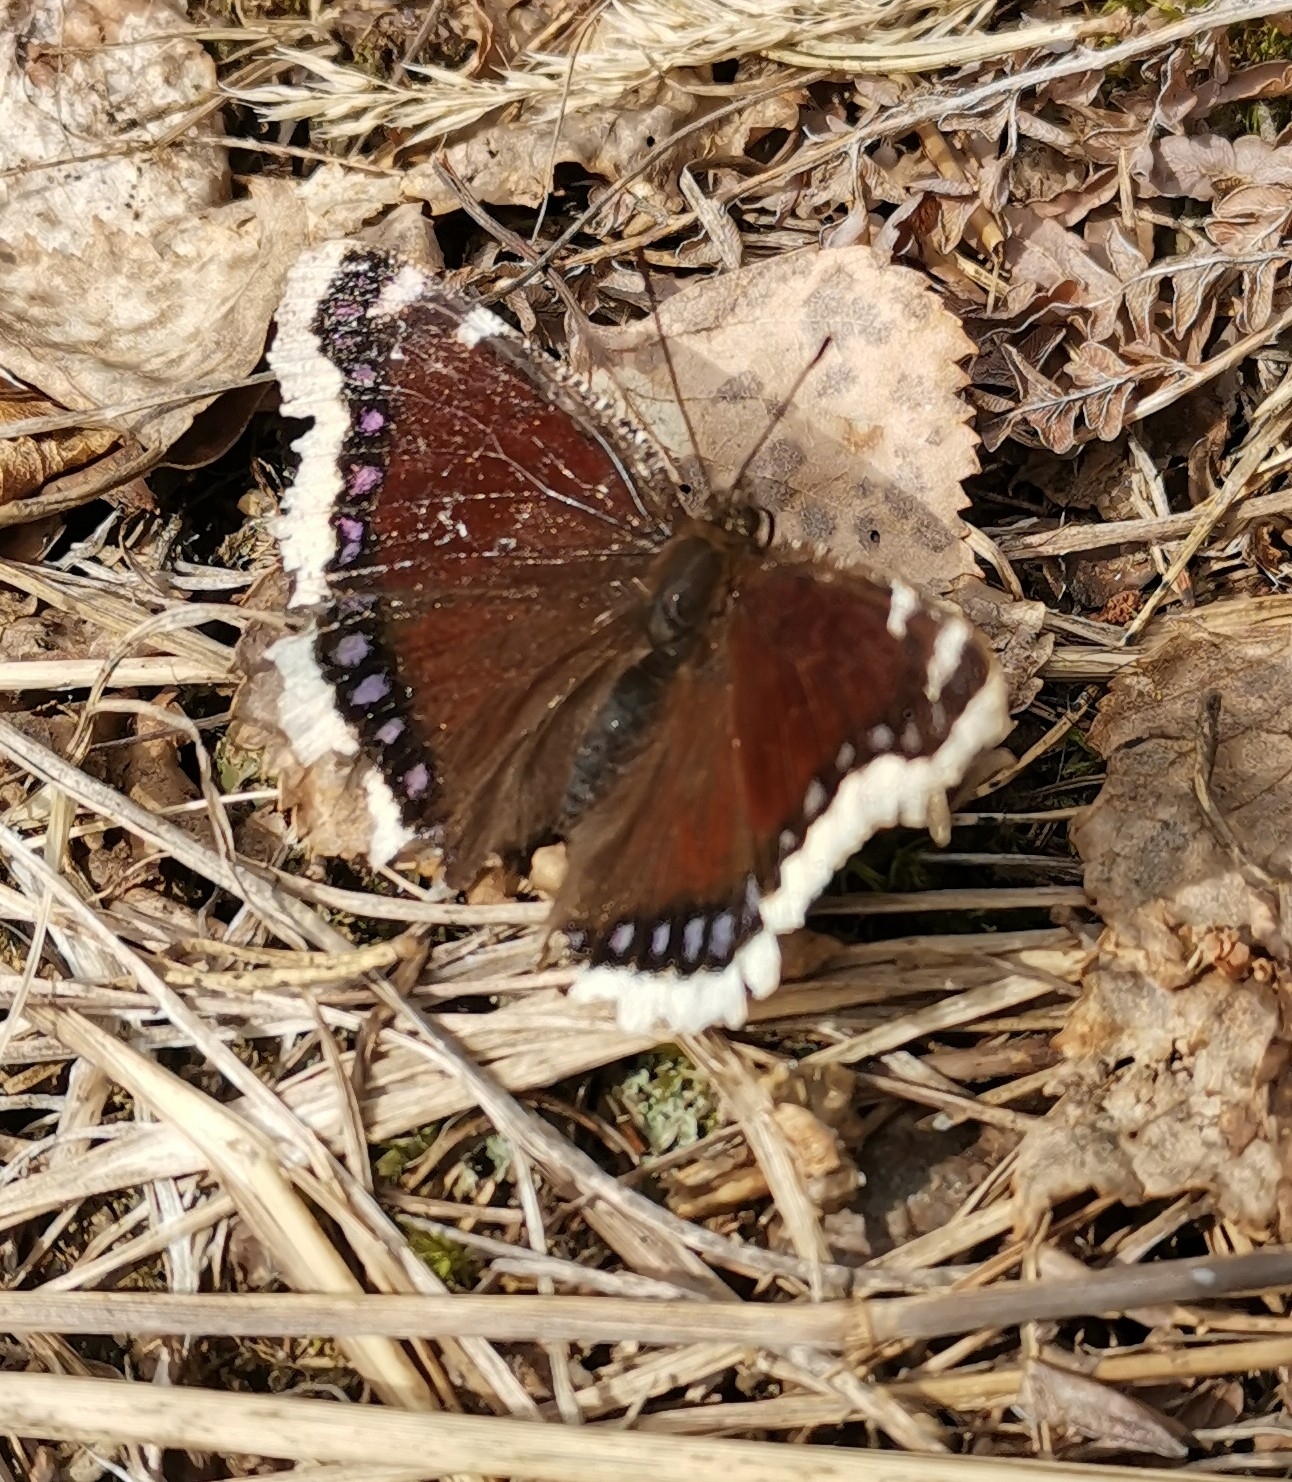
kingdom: Animalia
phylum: Arthropoda
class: Insecta
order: Lepidoptera
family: Nymphalidae
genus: Nymphalis
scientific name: Nymphalis antiopa
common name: Camberwell beauty
